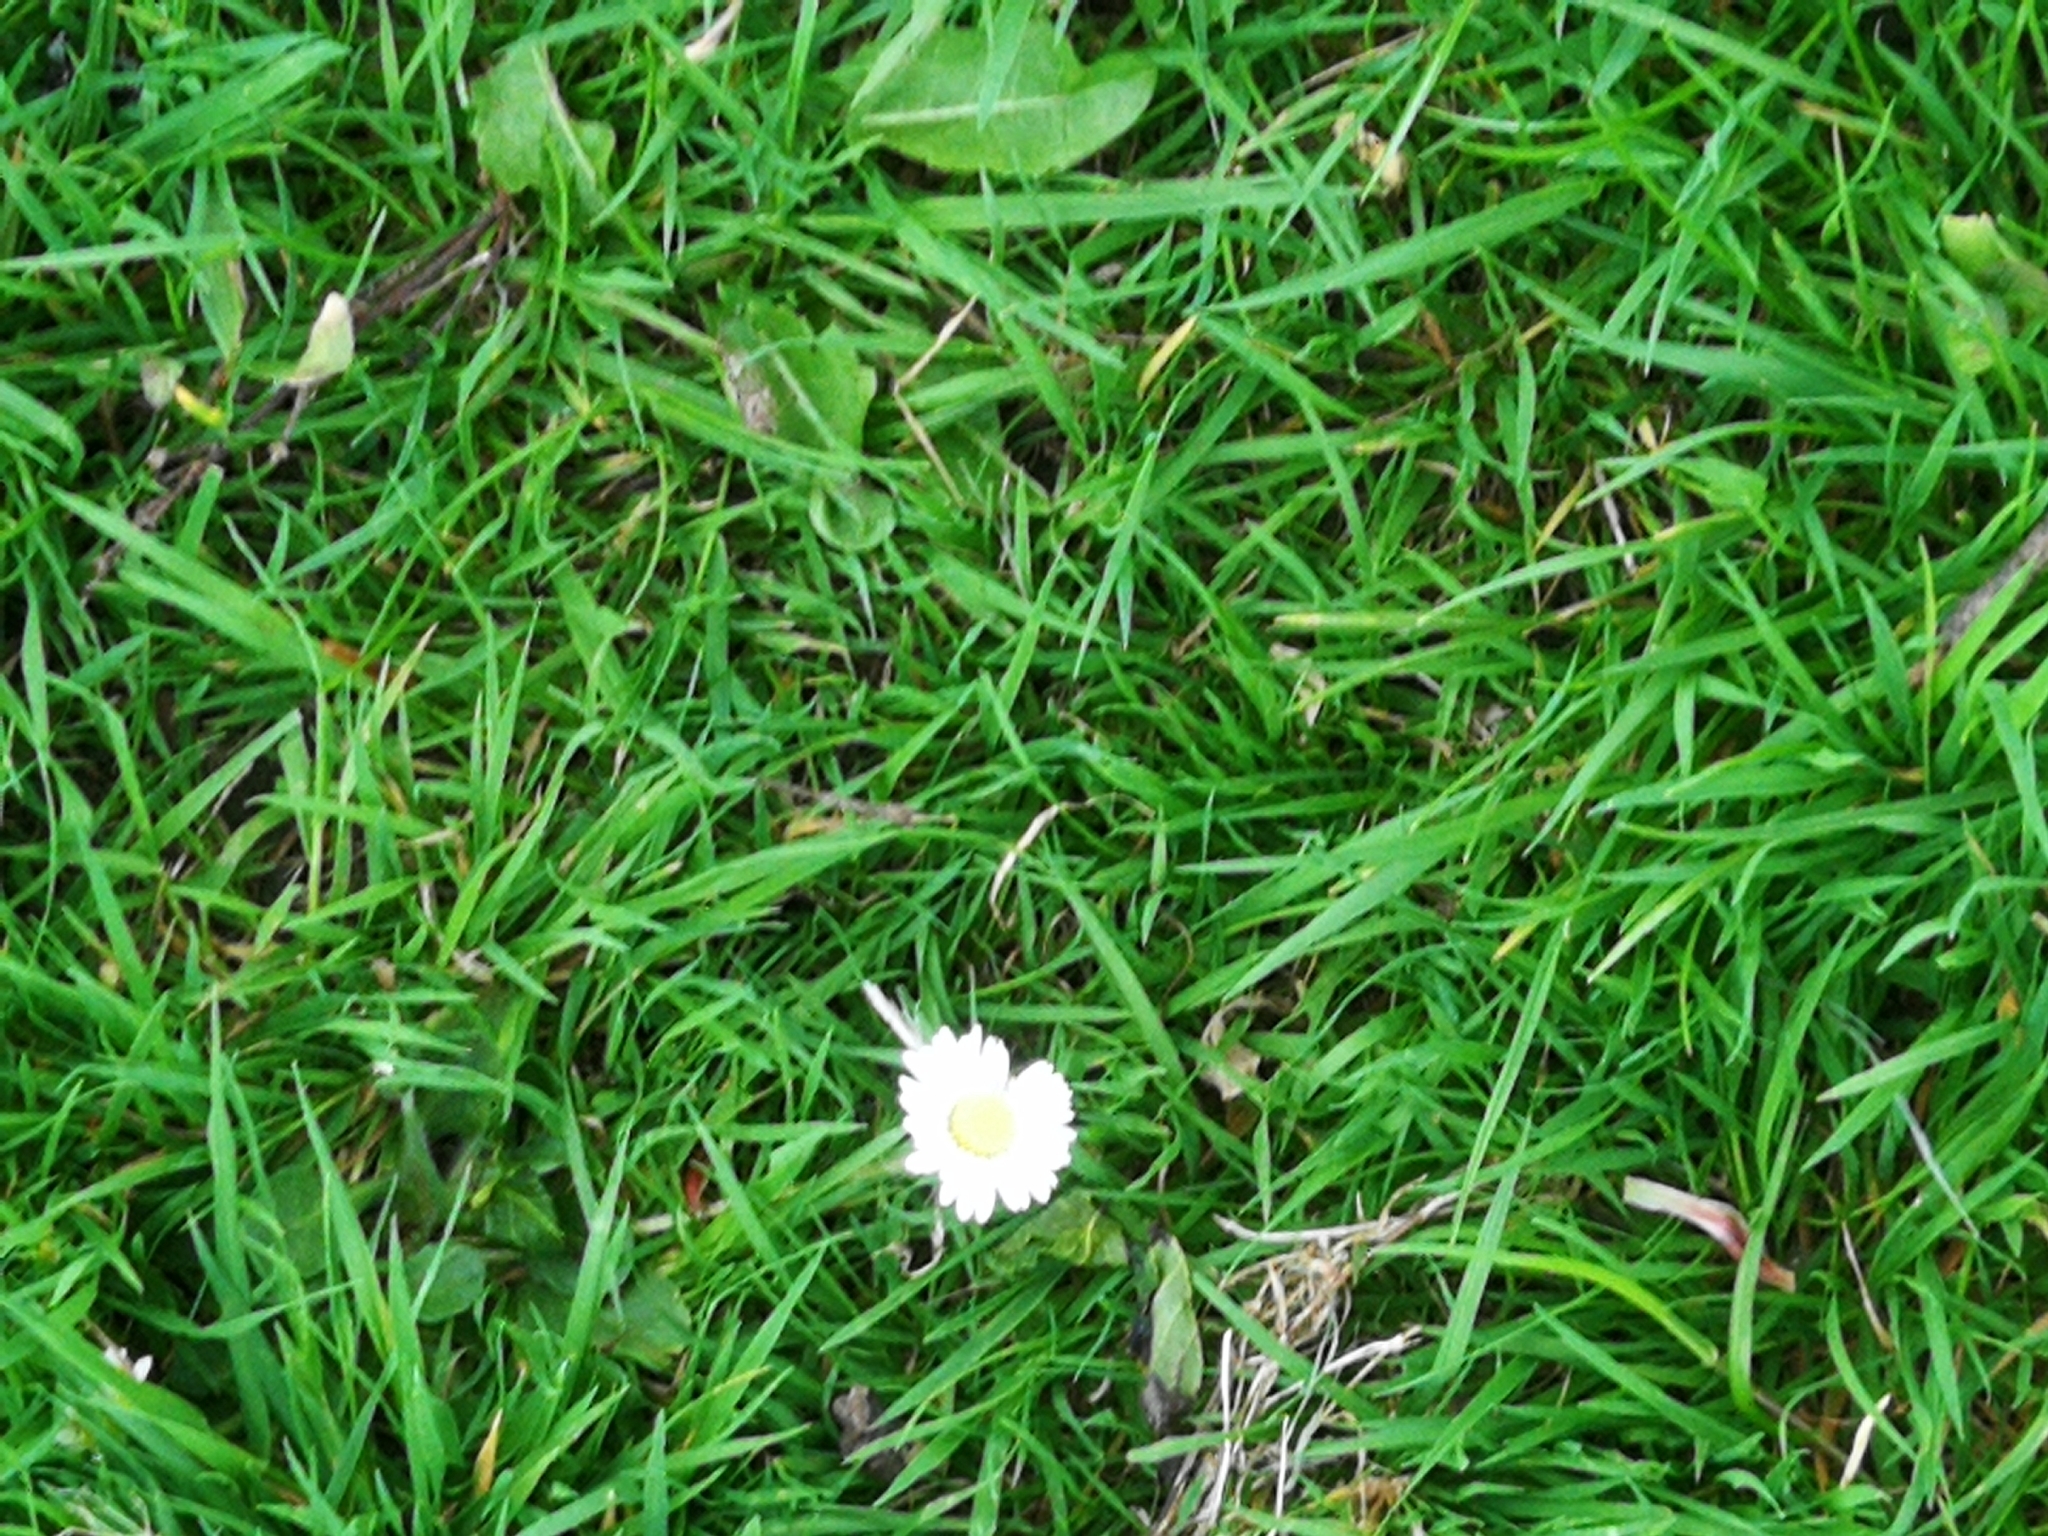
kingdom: Plantae
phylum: Tracheophyta
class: Magnoliopsida
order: Asterales
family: Asteraceae
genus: Bellis
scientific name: Bellis perennis
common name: Lawndaisy
